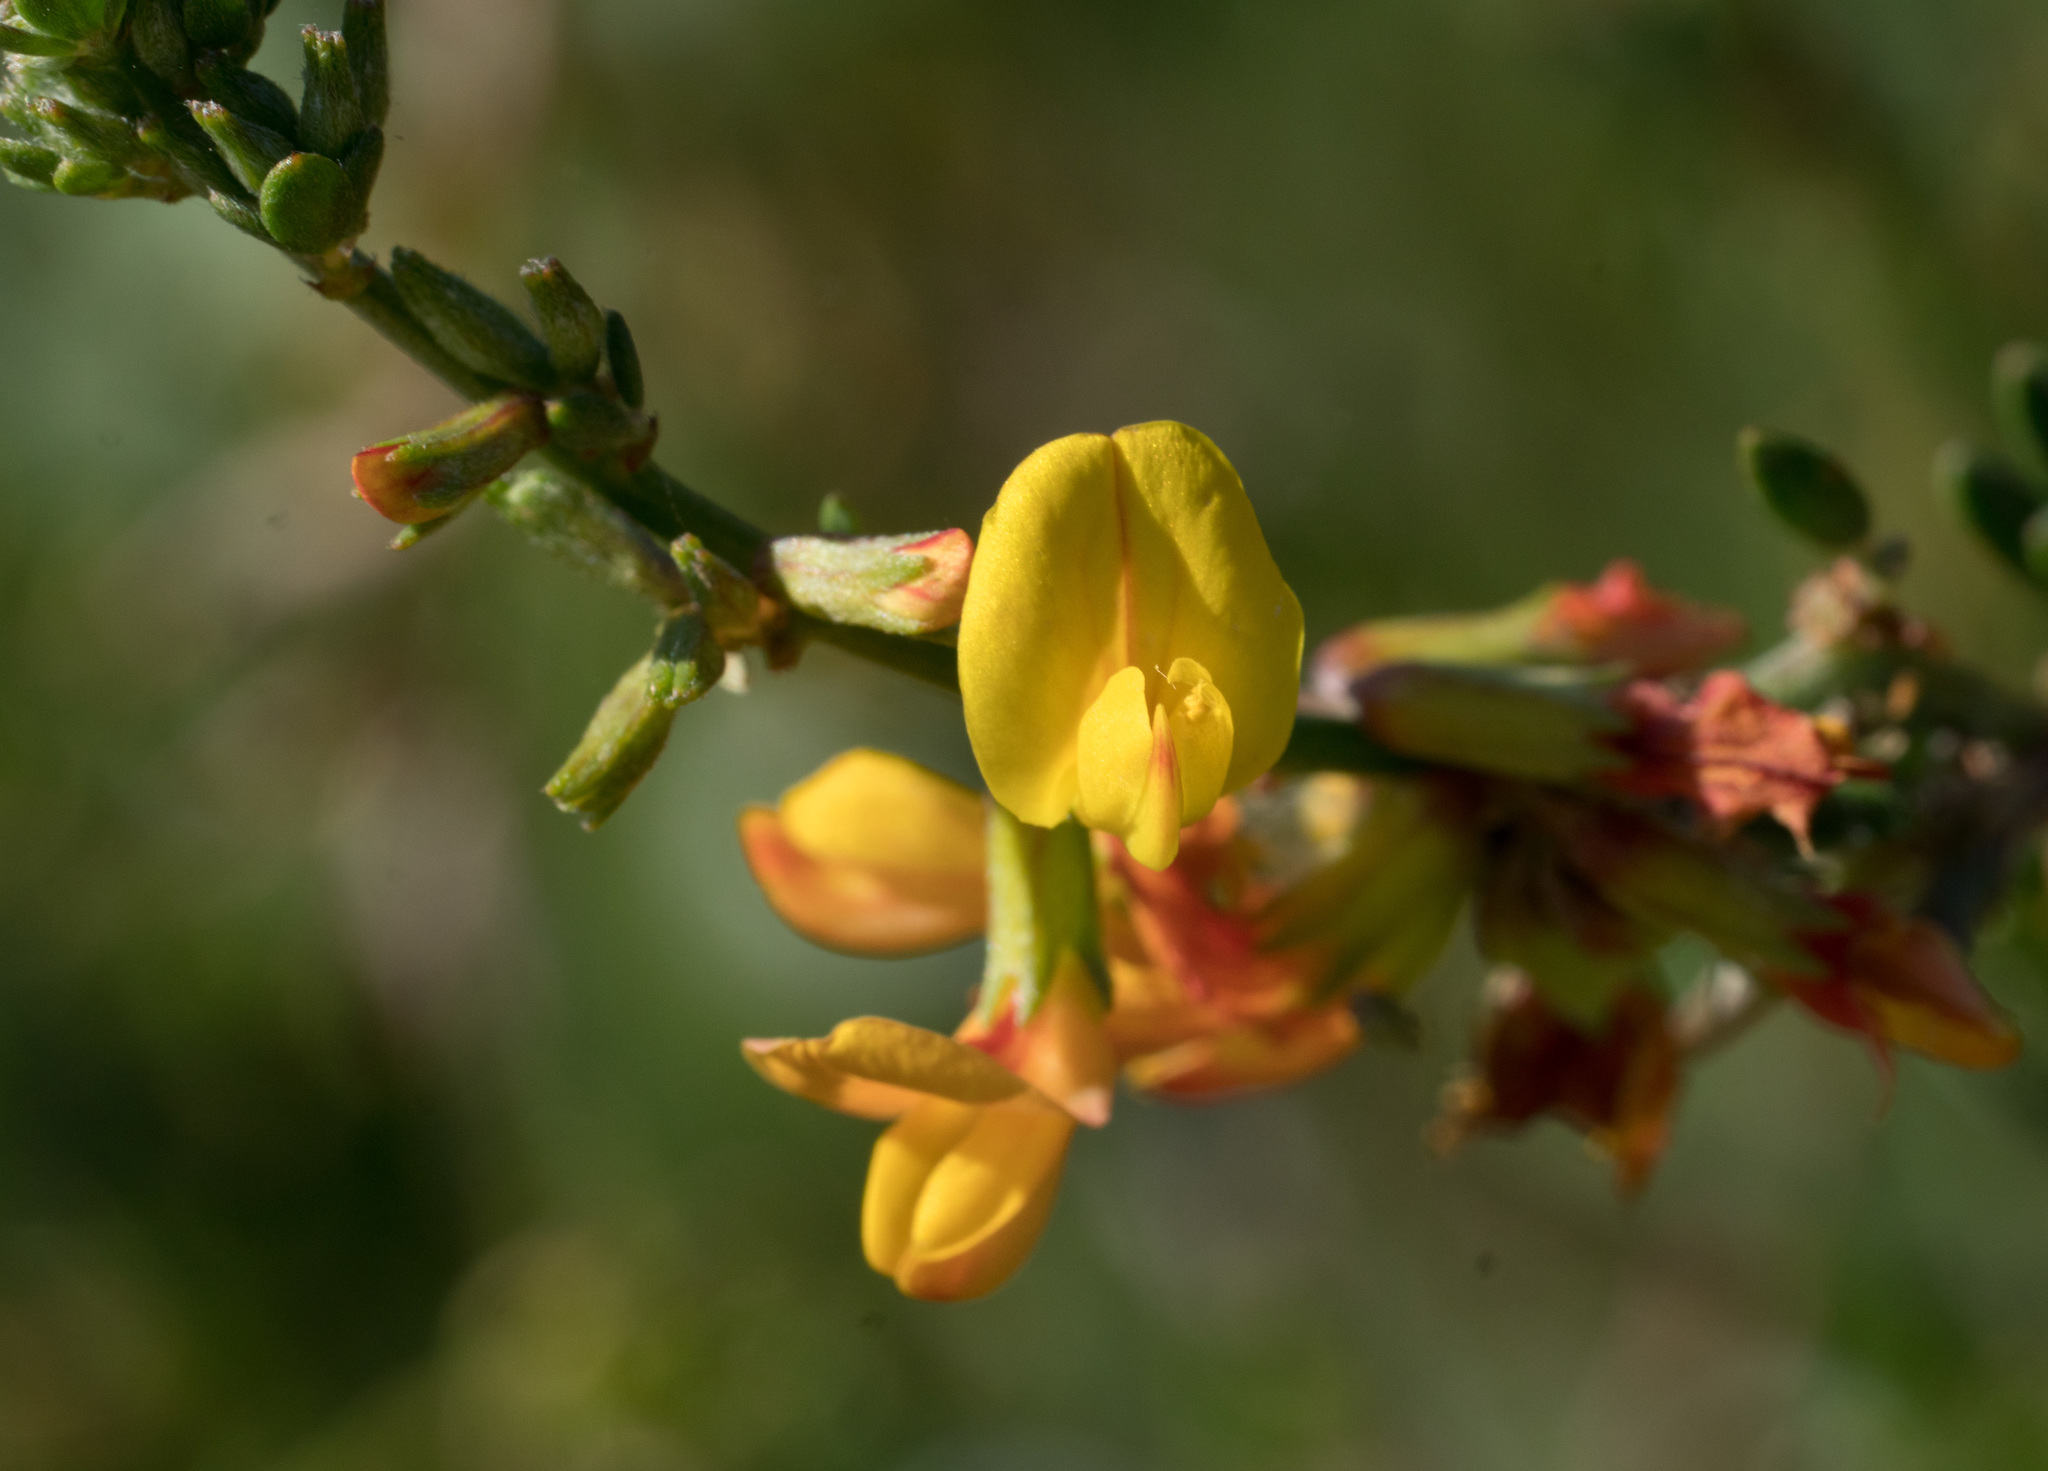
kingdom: Plantae
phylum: Tracheophyta
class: Magnoliopsida
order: Fabales
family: Fabaceae
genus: Acmispon
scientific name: Acmispon glaber
